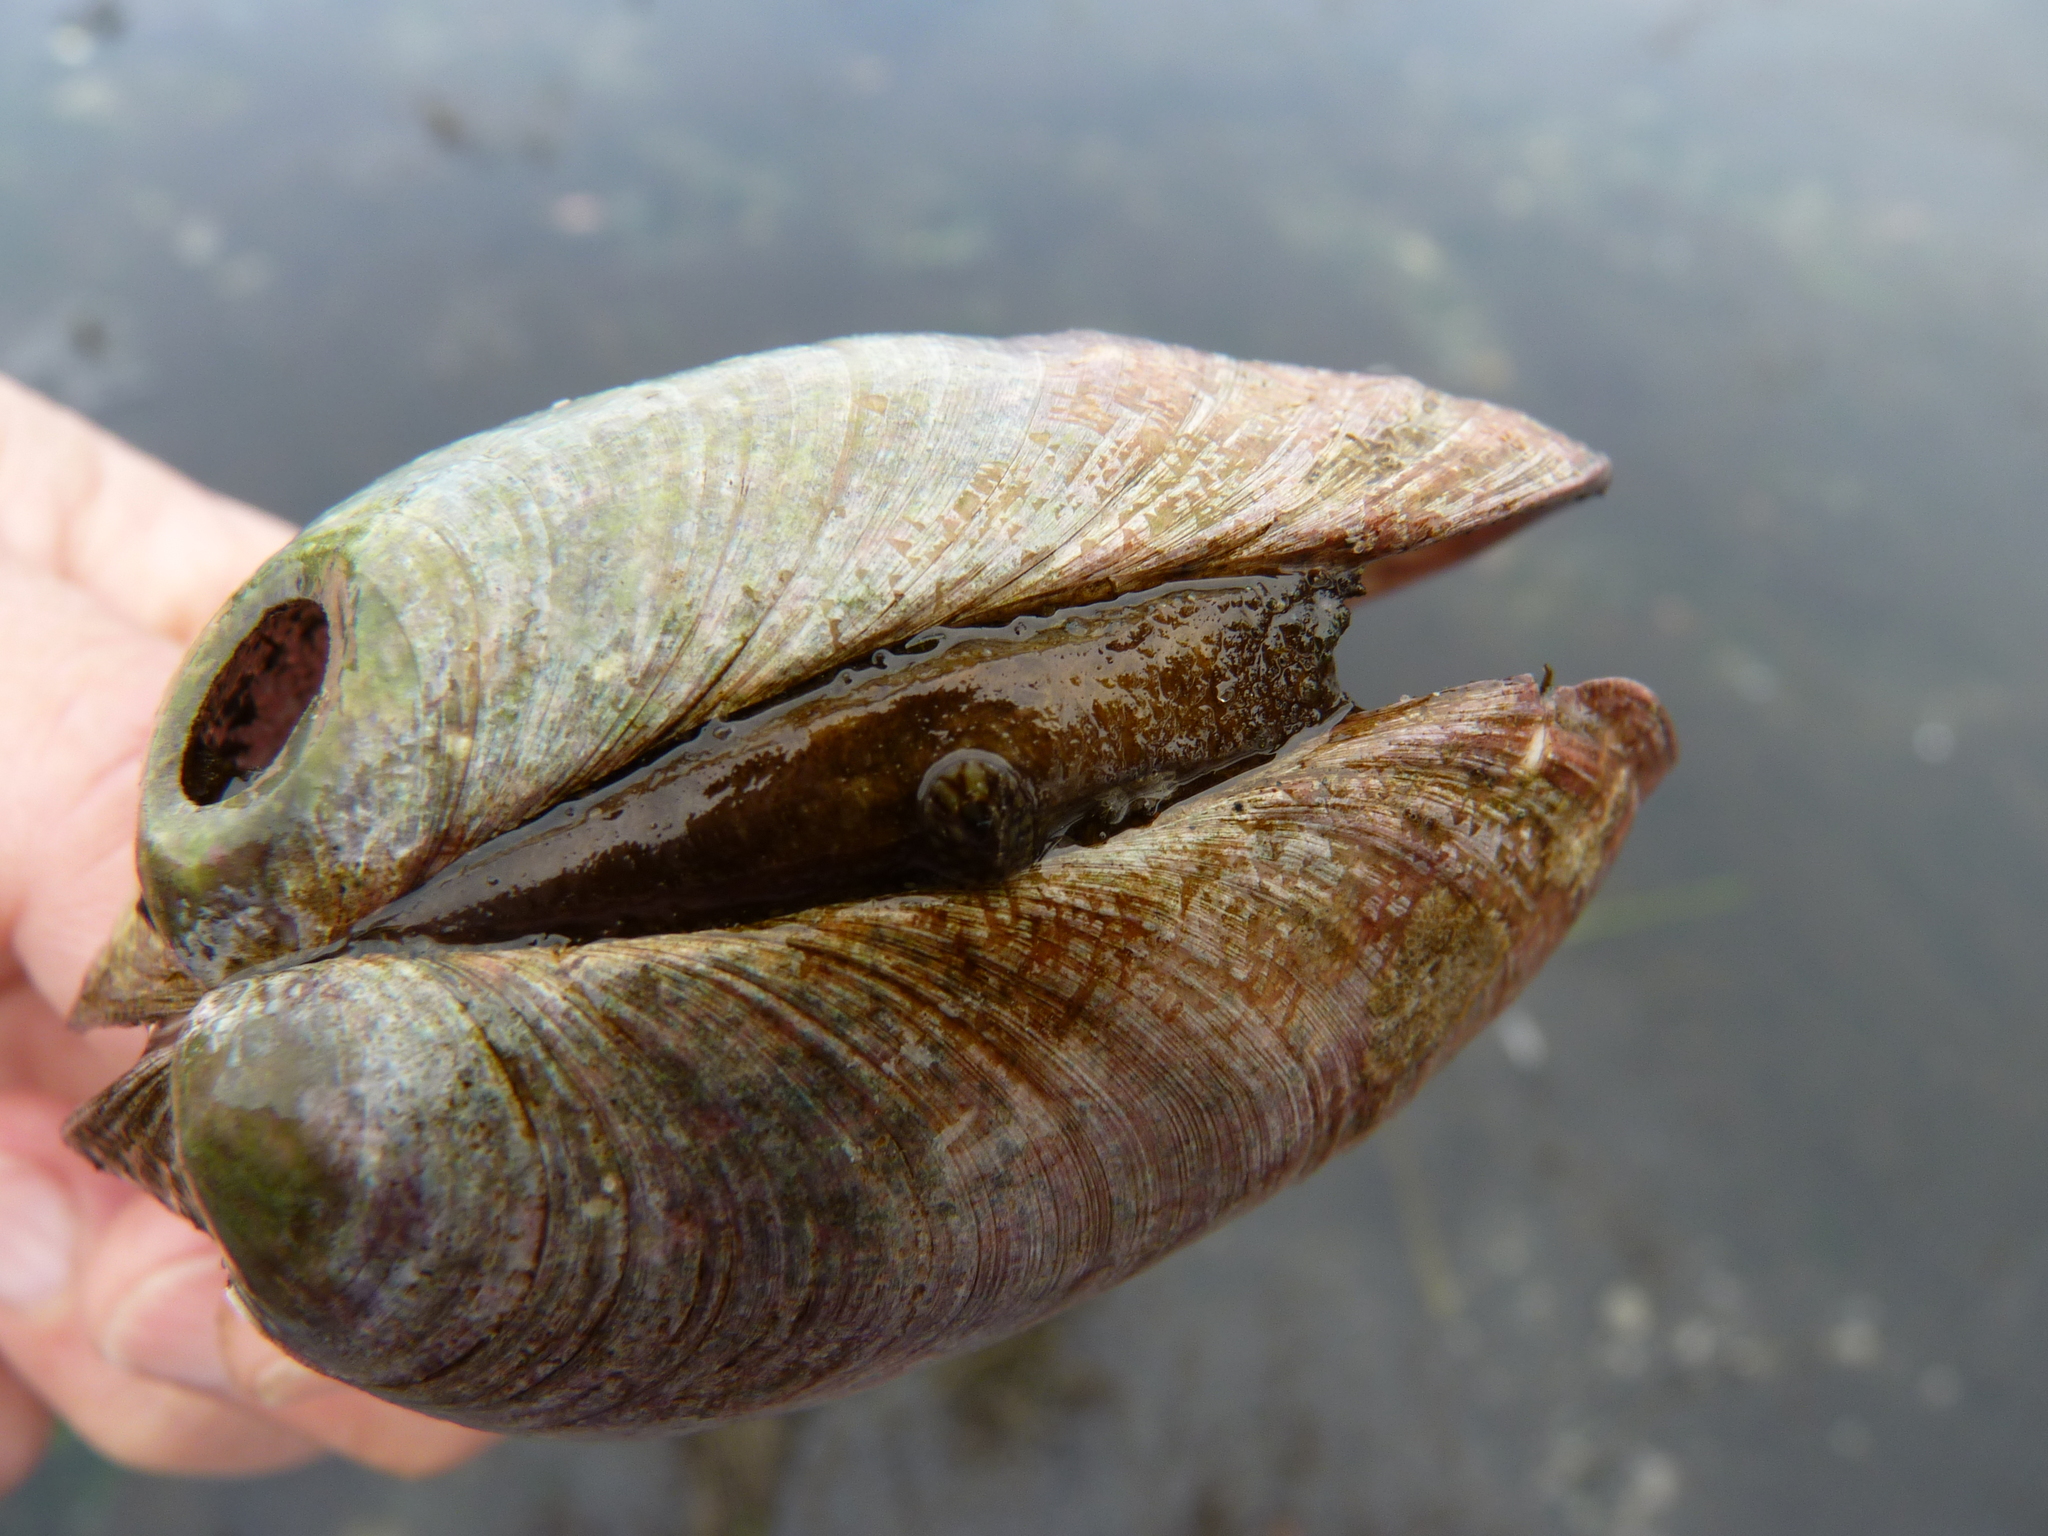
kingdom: Animalia
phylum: Mollusca
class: Bivalvia
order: Venerida
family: Veneridae
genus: Saxidomus
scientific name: Saxidomus gigantea
